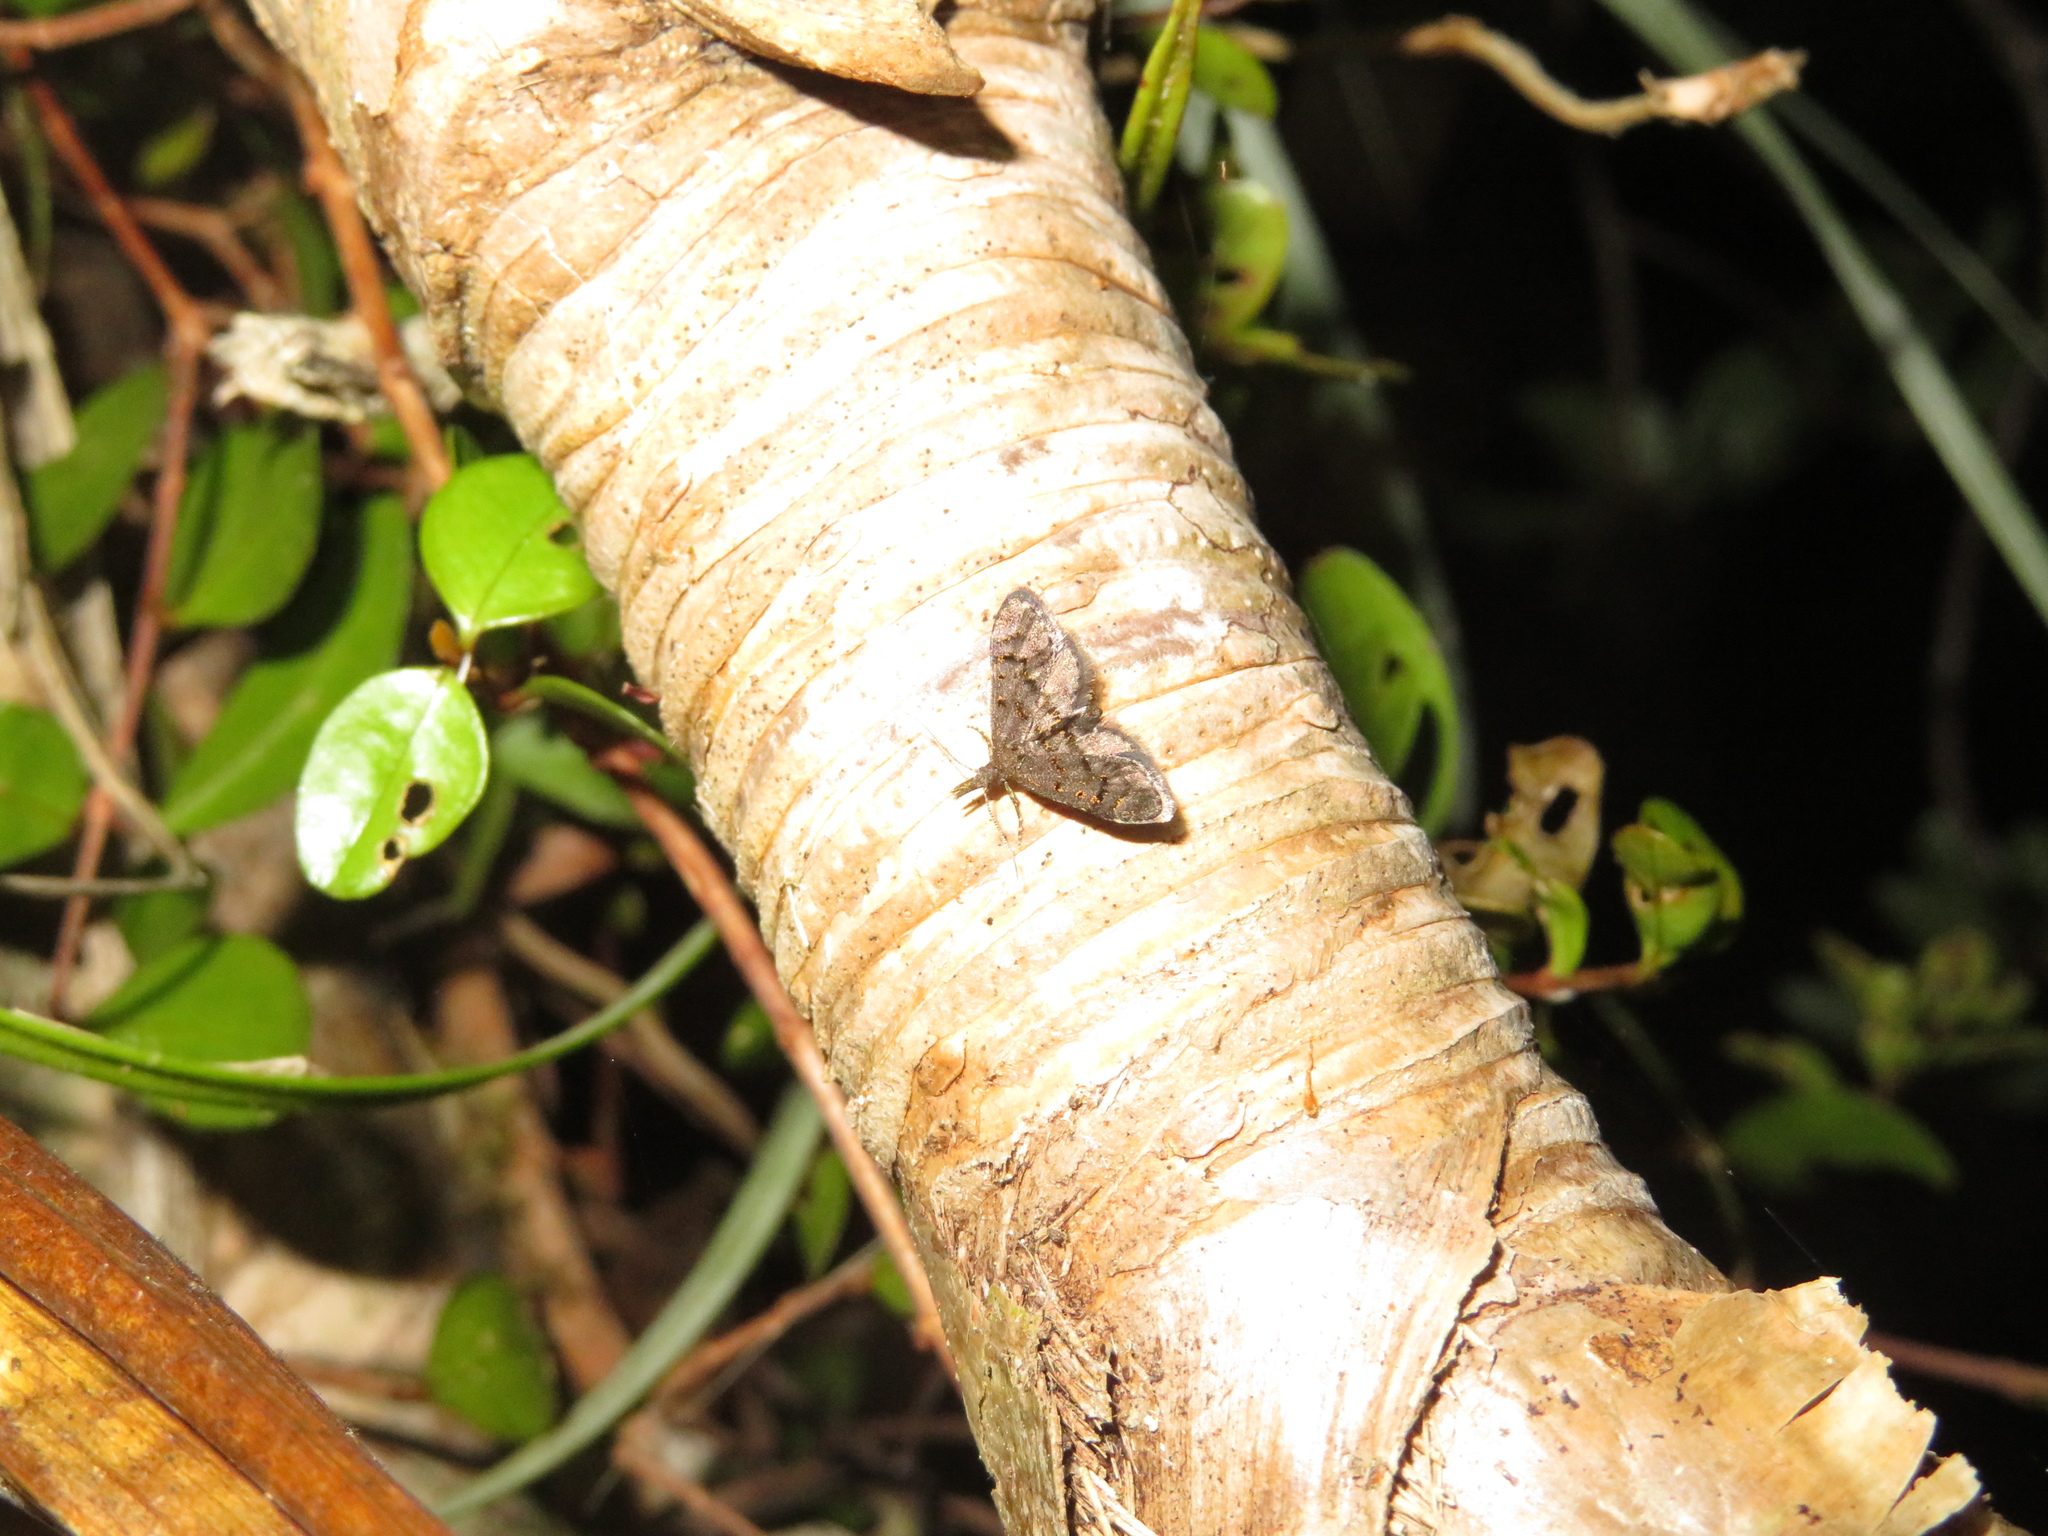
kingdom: Animalia
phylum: Arthropoda
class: Insecta
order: Lepidoptera
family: Copromorphidae
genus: Isonomeutis
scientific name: Isonomeutis amauropa
